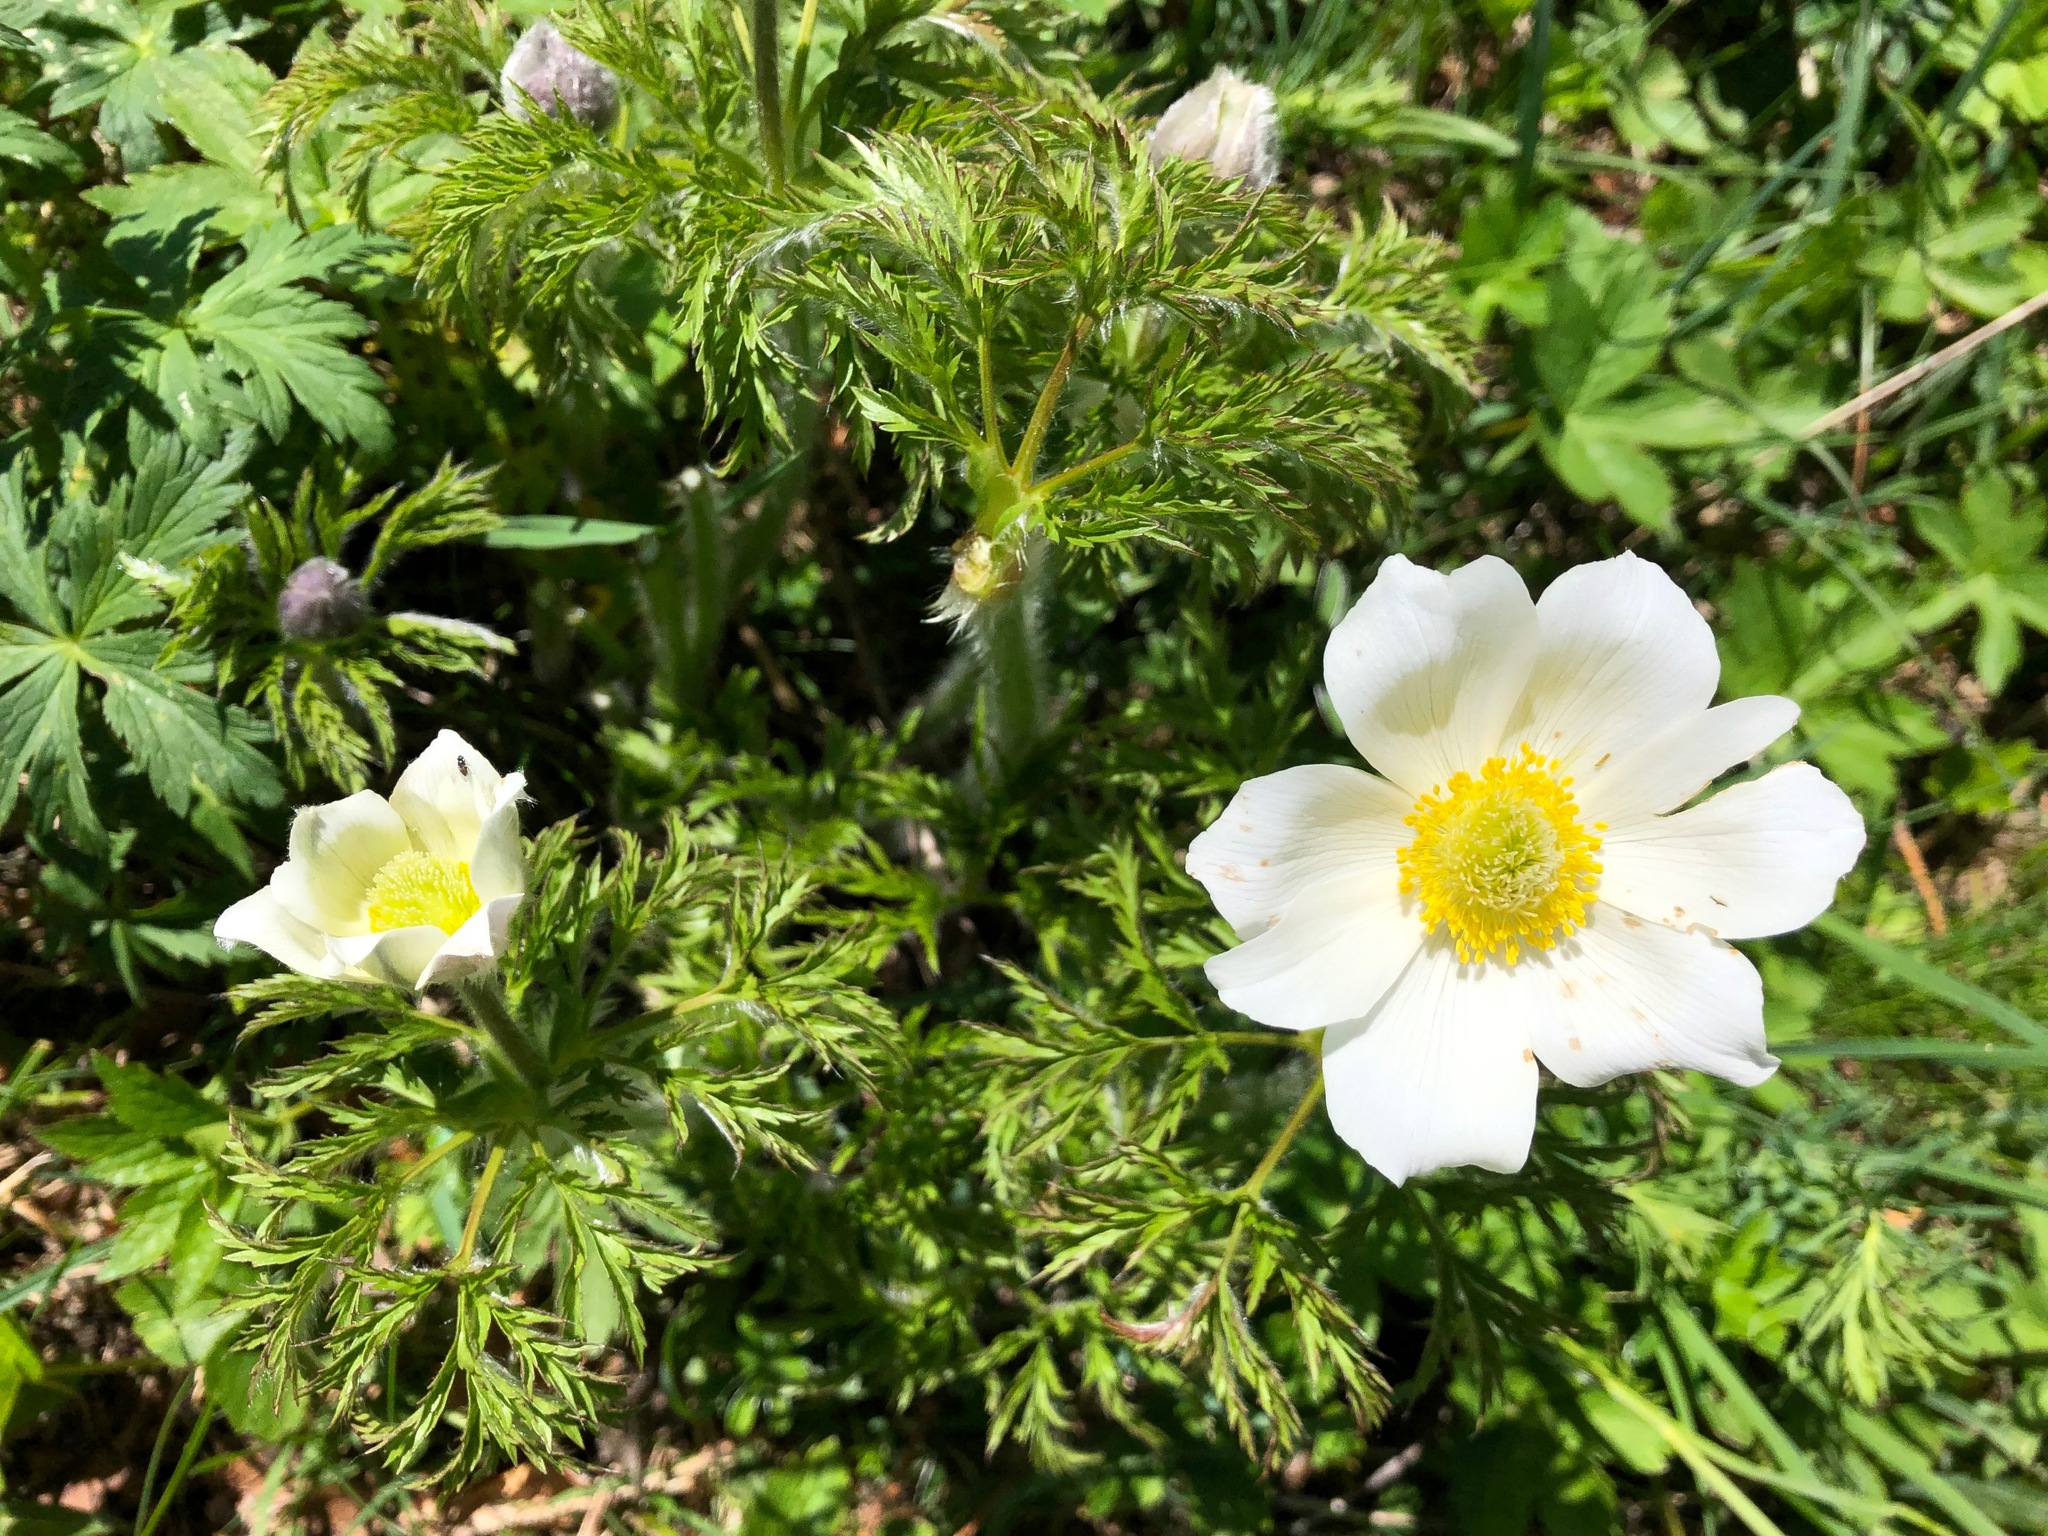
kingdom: Plantae
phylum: Tracheophyta
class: Magnoliopsida
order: Ranunculales
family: Ranunculaceae
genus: Pulsatilla
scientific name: Pulsatilla alpina
